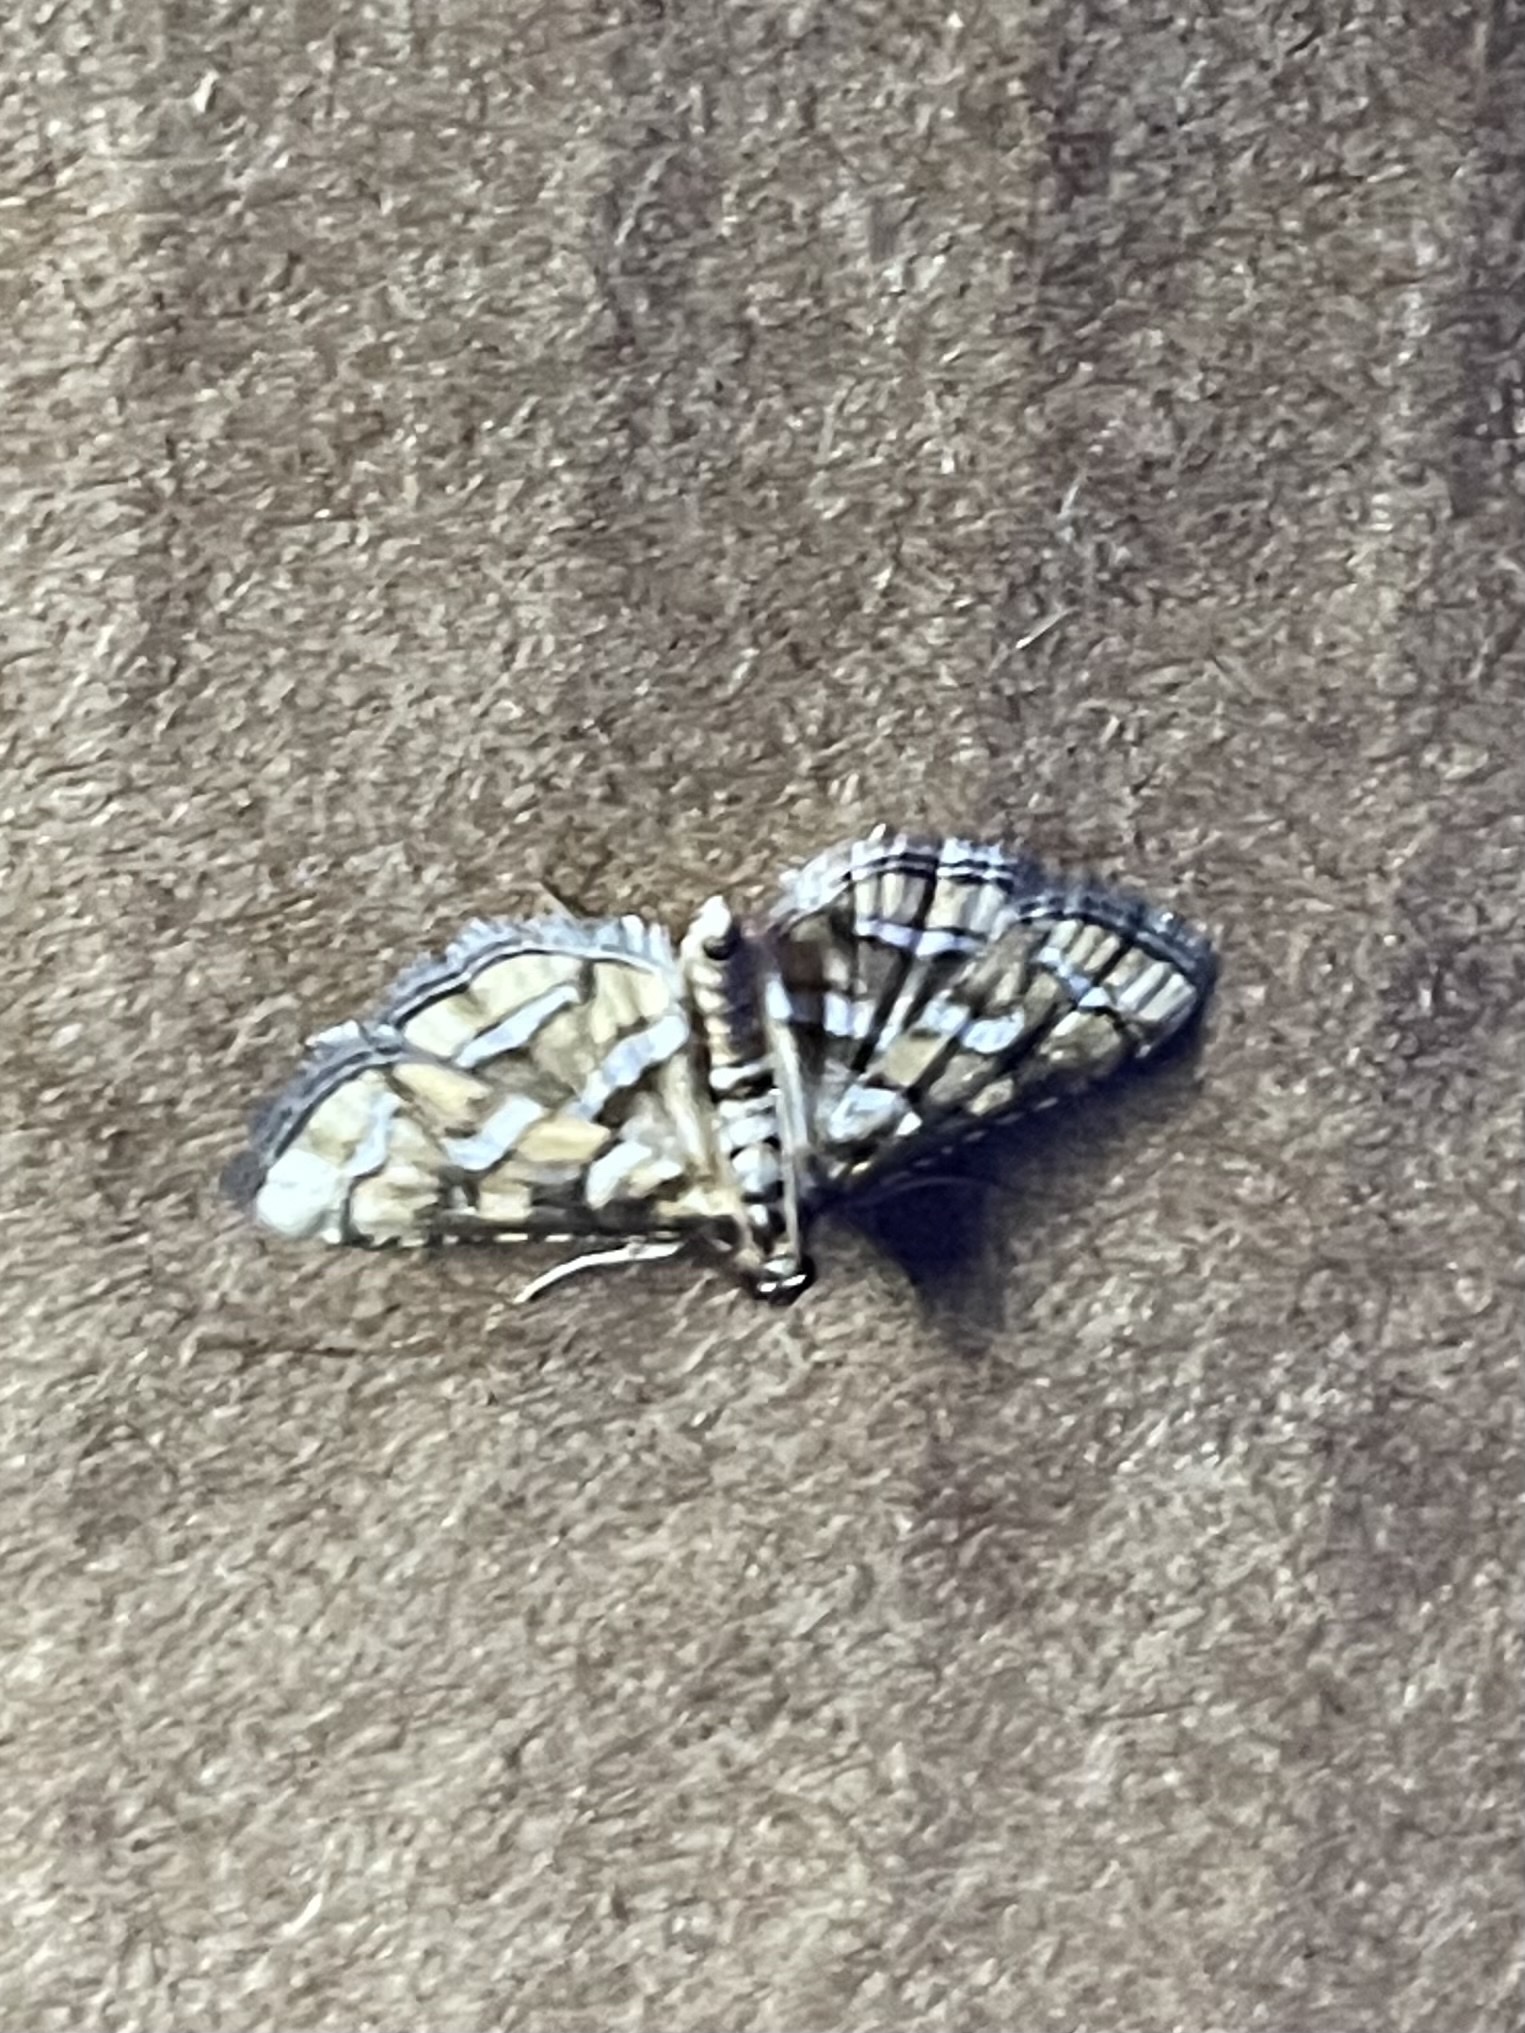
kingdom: Animalia
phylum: Arthropoda
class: Insecta
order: Lepidoptera
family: Crambidae
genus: Hileithia
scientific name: Hileithia magualis
